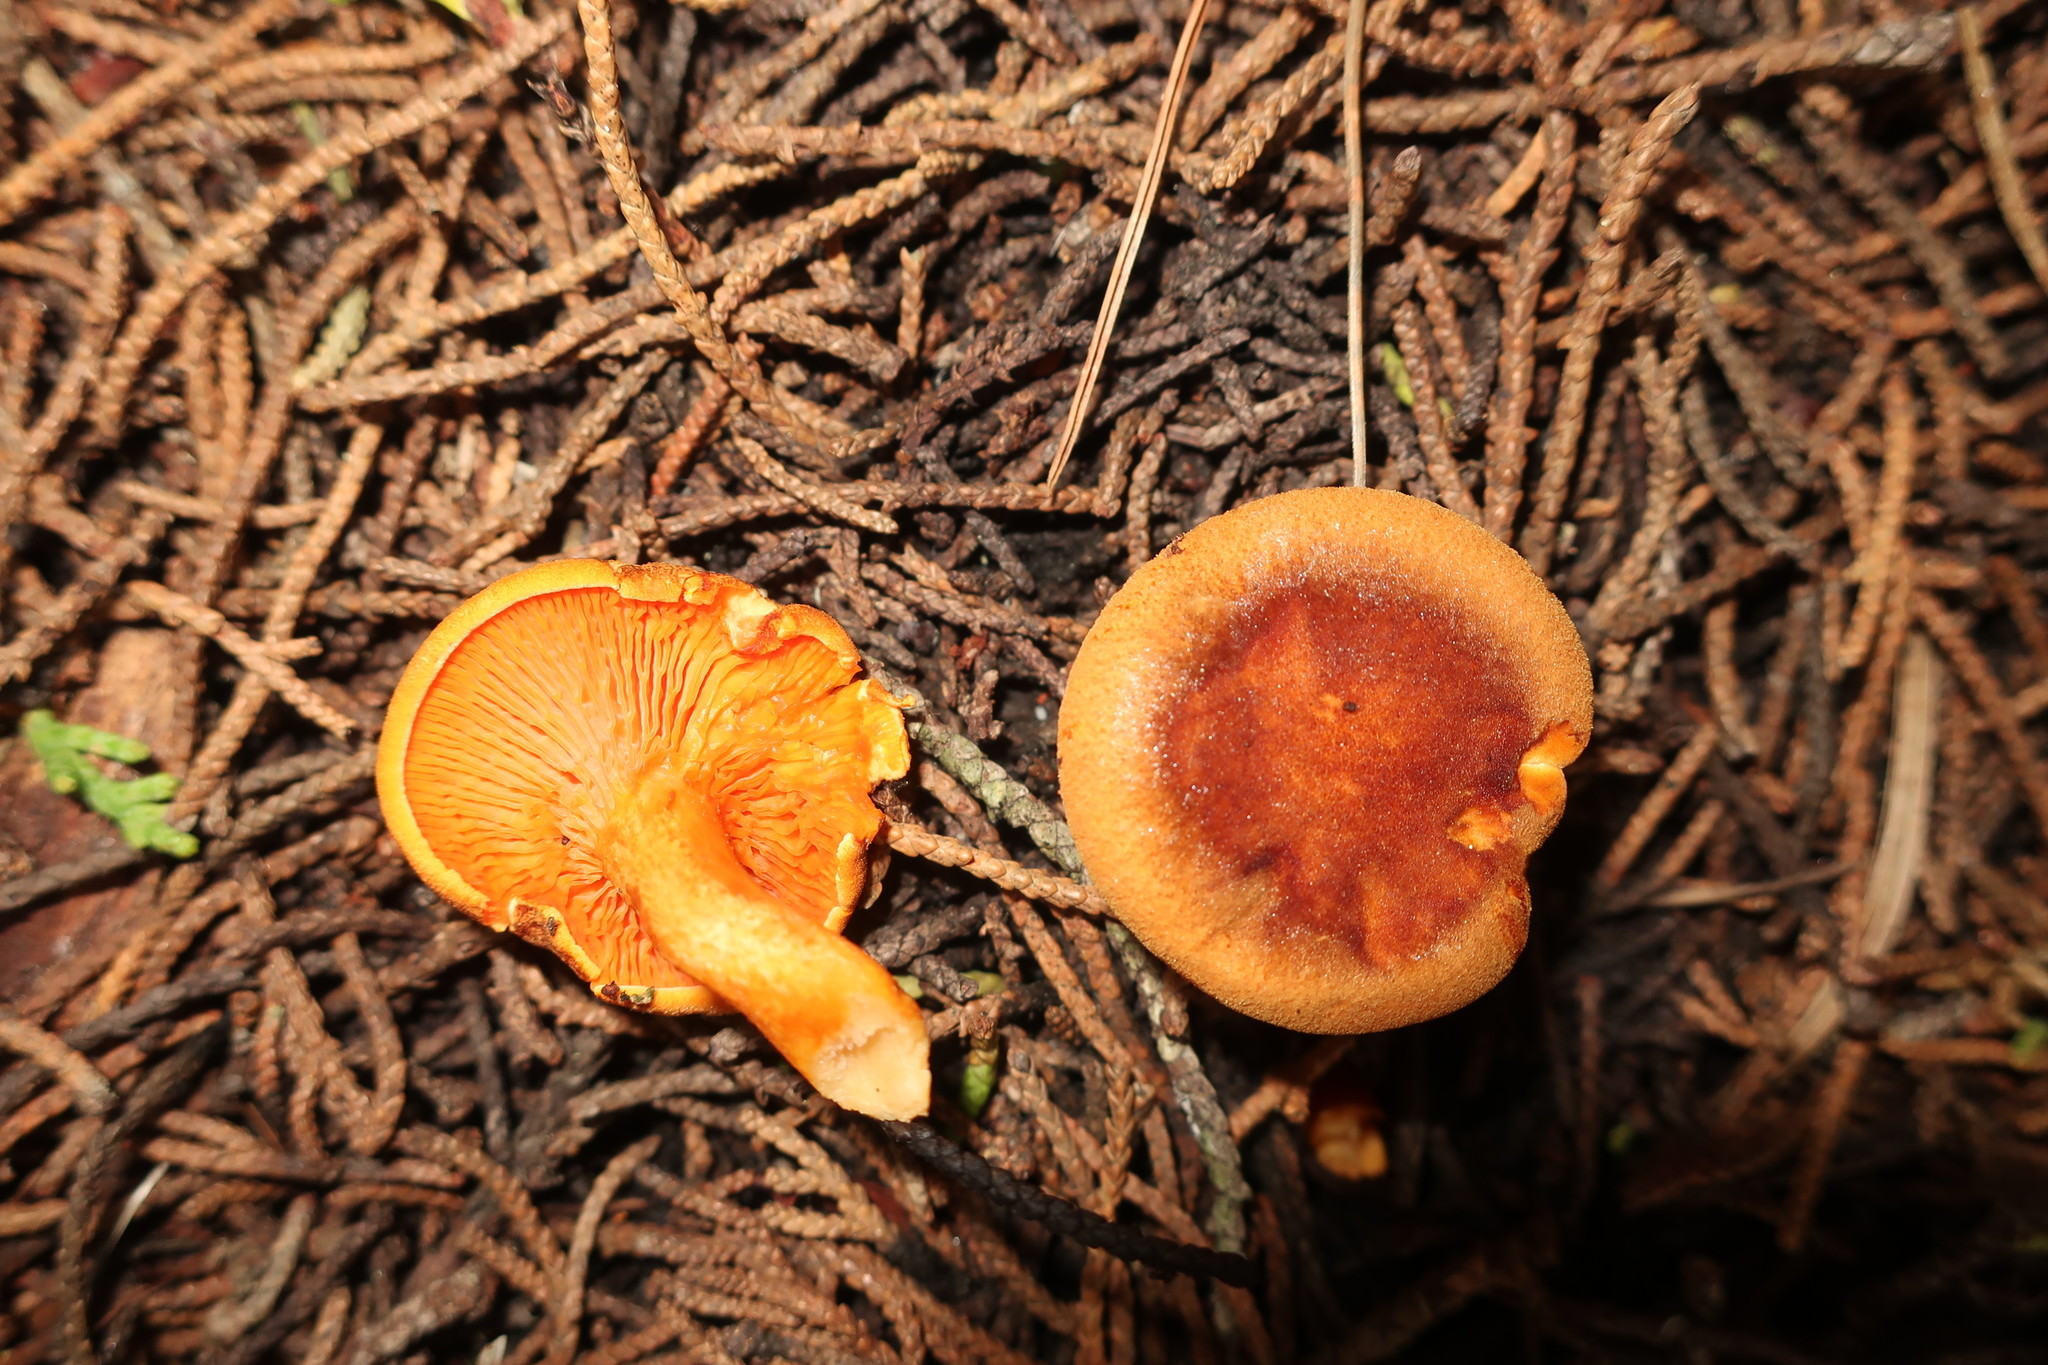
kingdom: Fungi
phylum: Basidiomycota
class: Agaricomycetes
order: Boletales
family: Hygrophoropsidaceae
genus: Hygrophoropsis
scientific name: Hygrophoropsis aurantiaca
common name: False chanterelle
